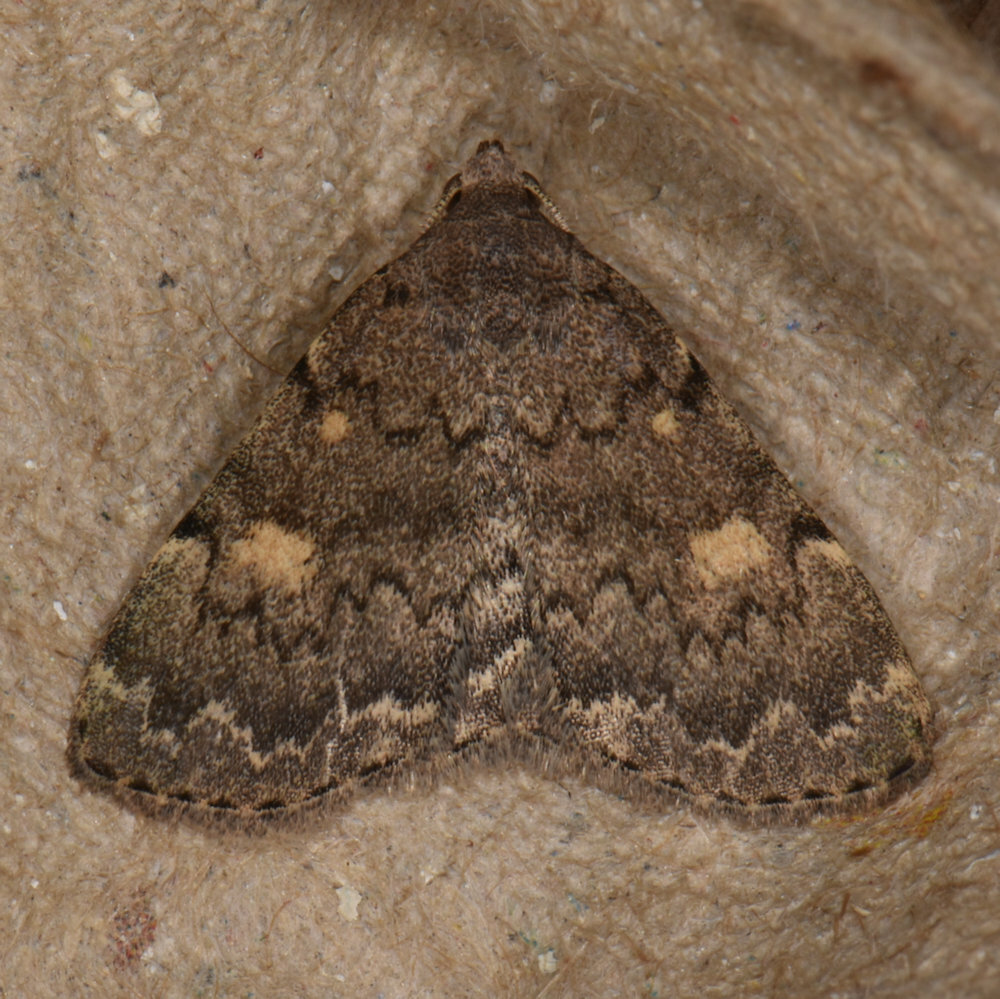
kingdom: Animalia
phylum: Arthropoda
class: Insecta
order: Lepidoptera
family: Erebidae
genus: Idia
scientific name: Idia aemula
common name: Common idia moth
